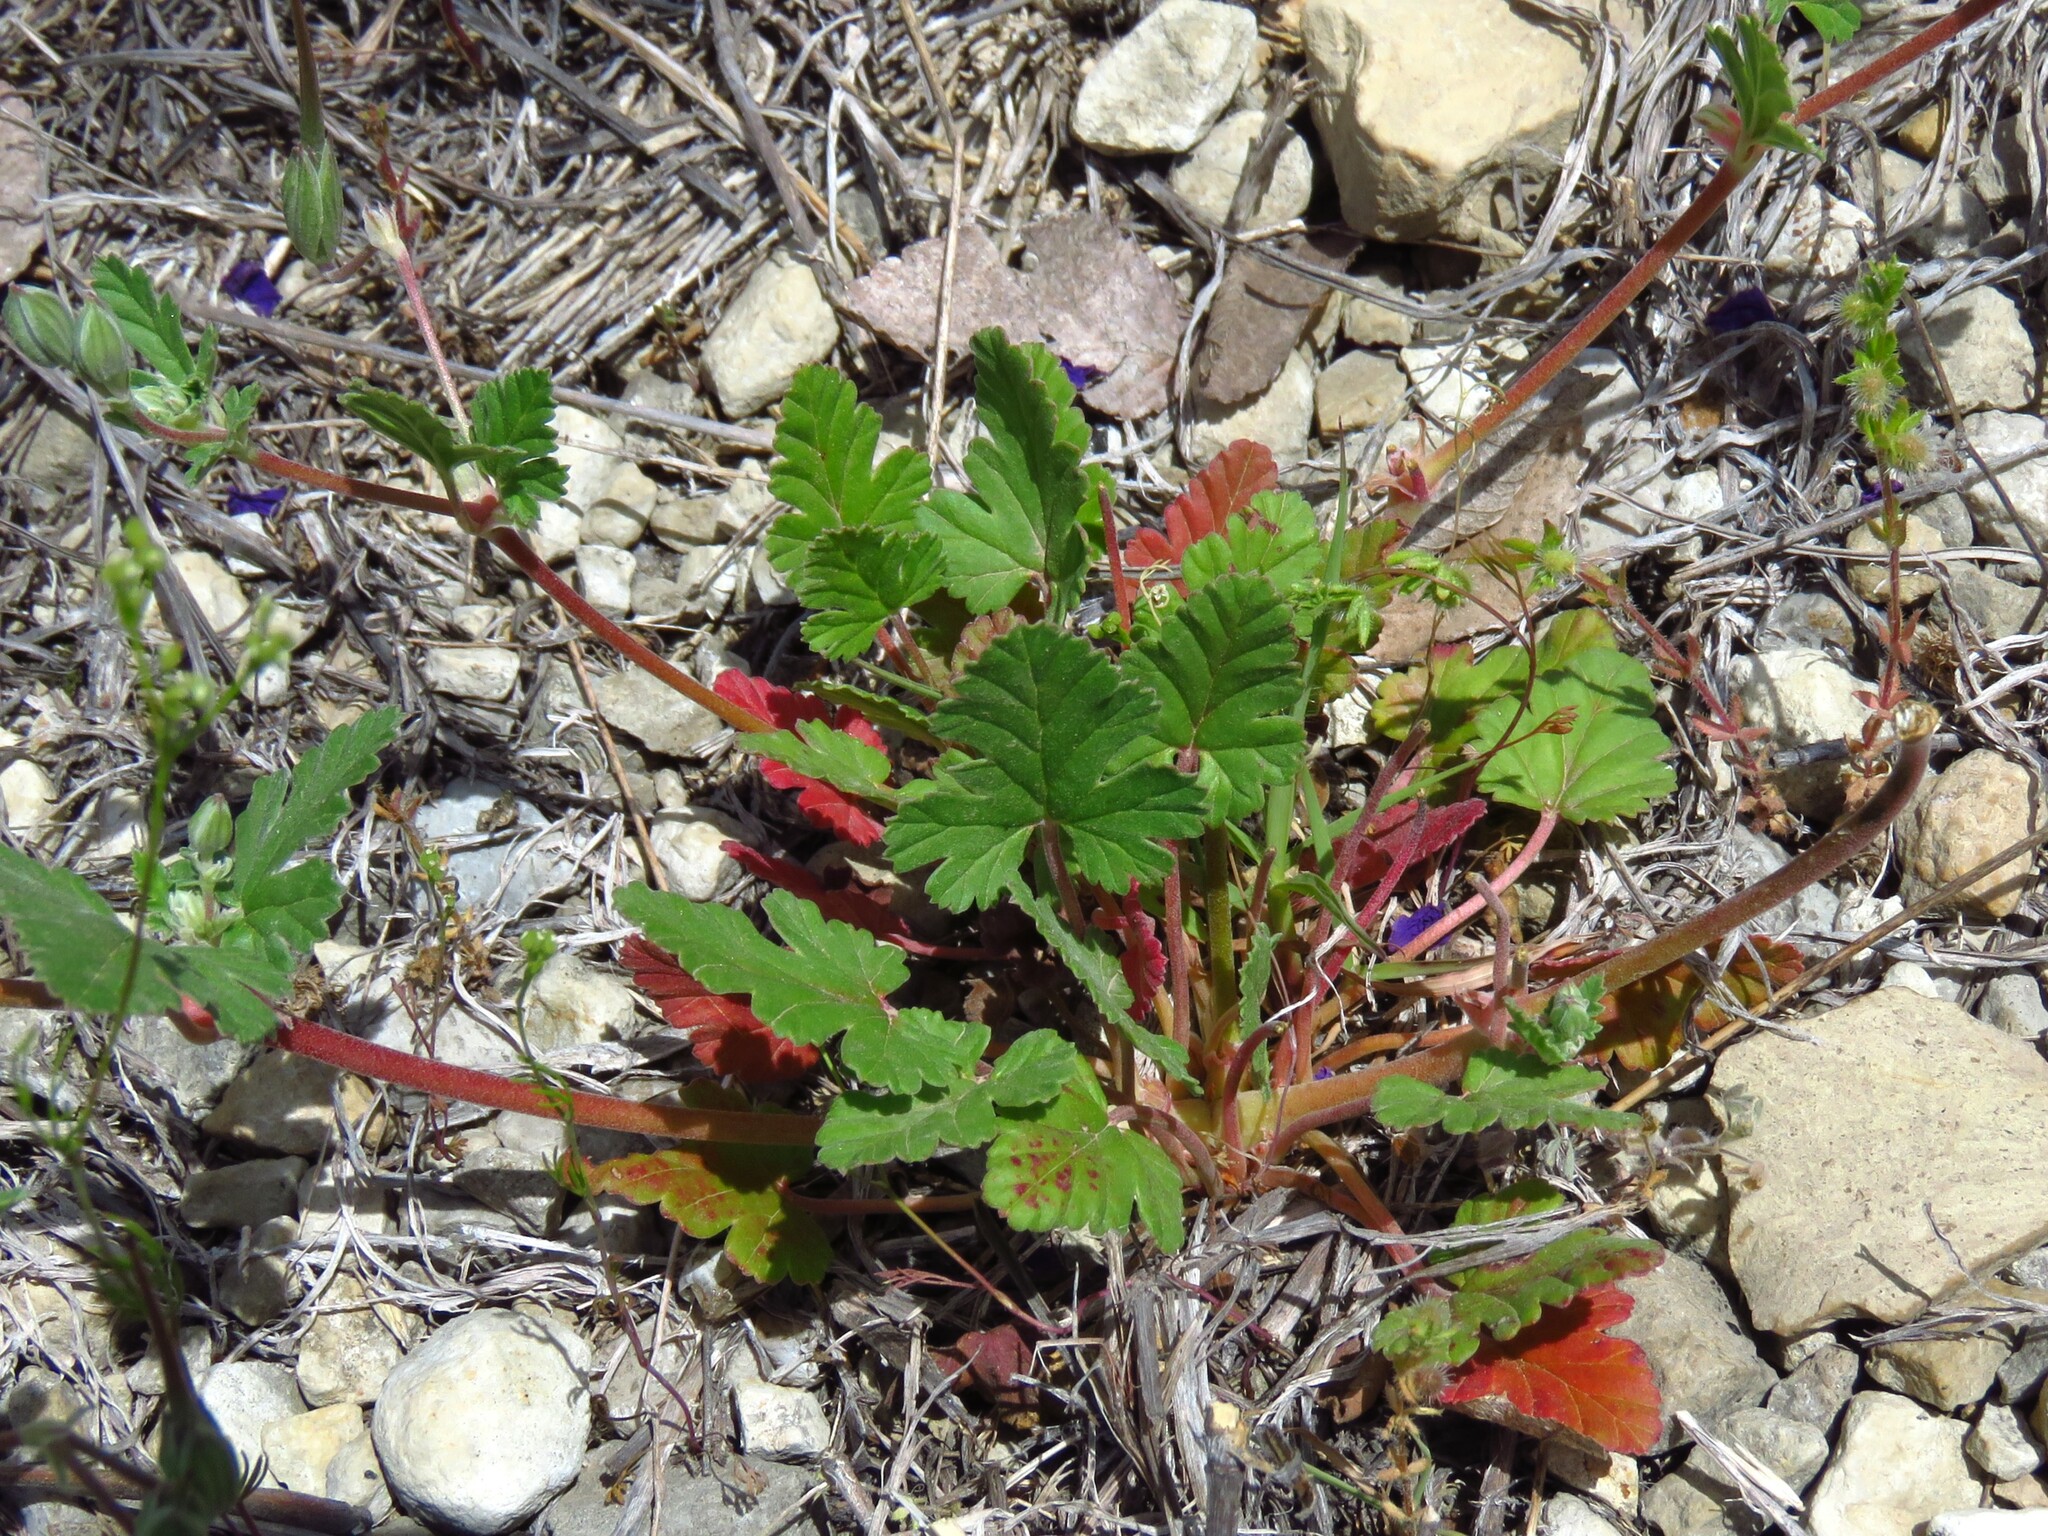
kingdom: Plantae
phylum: Tracheophyta
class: Magnoliopsida
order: Geraniales
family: Geraniaceae
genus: Erodium
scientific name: Erodium texanum
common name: Texas stork's-bill
